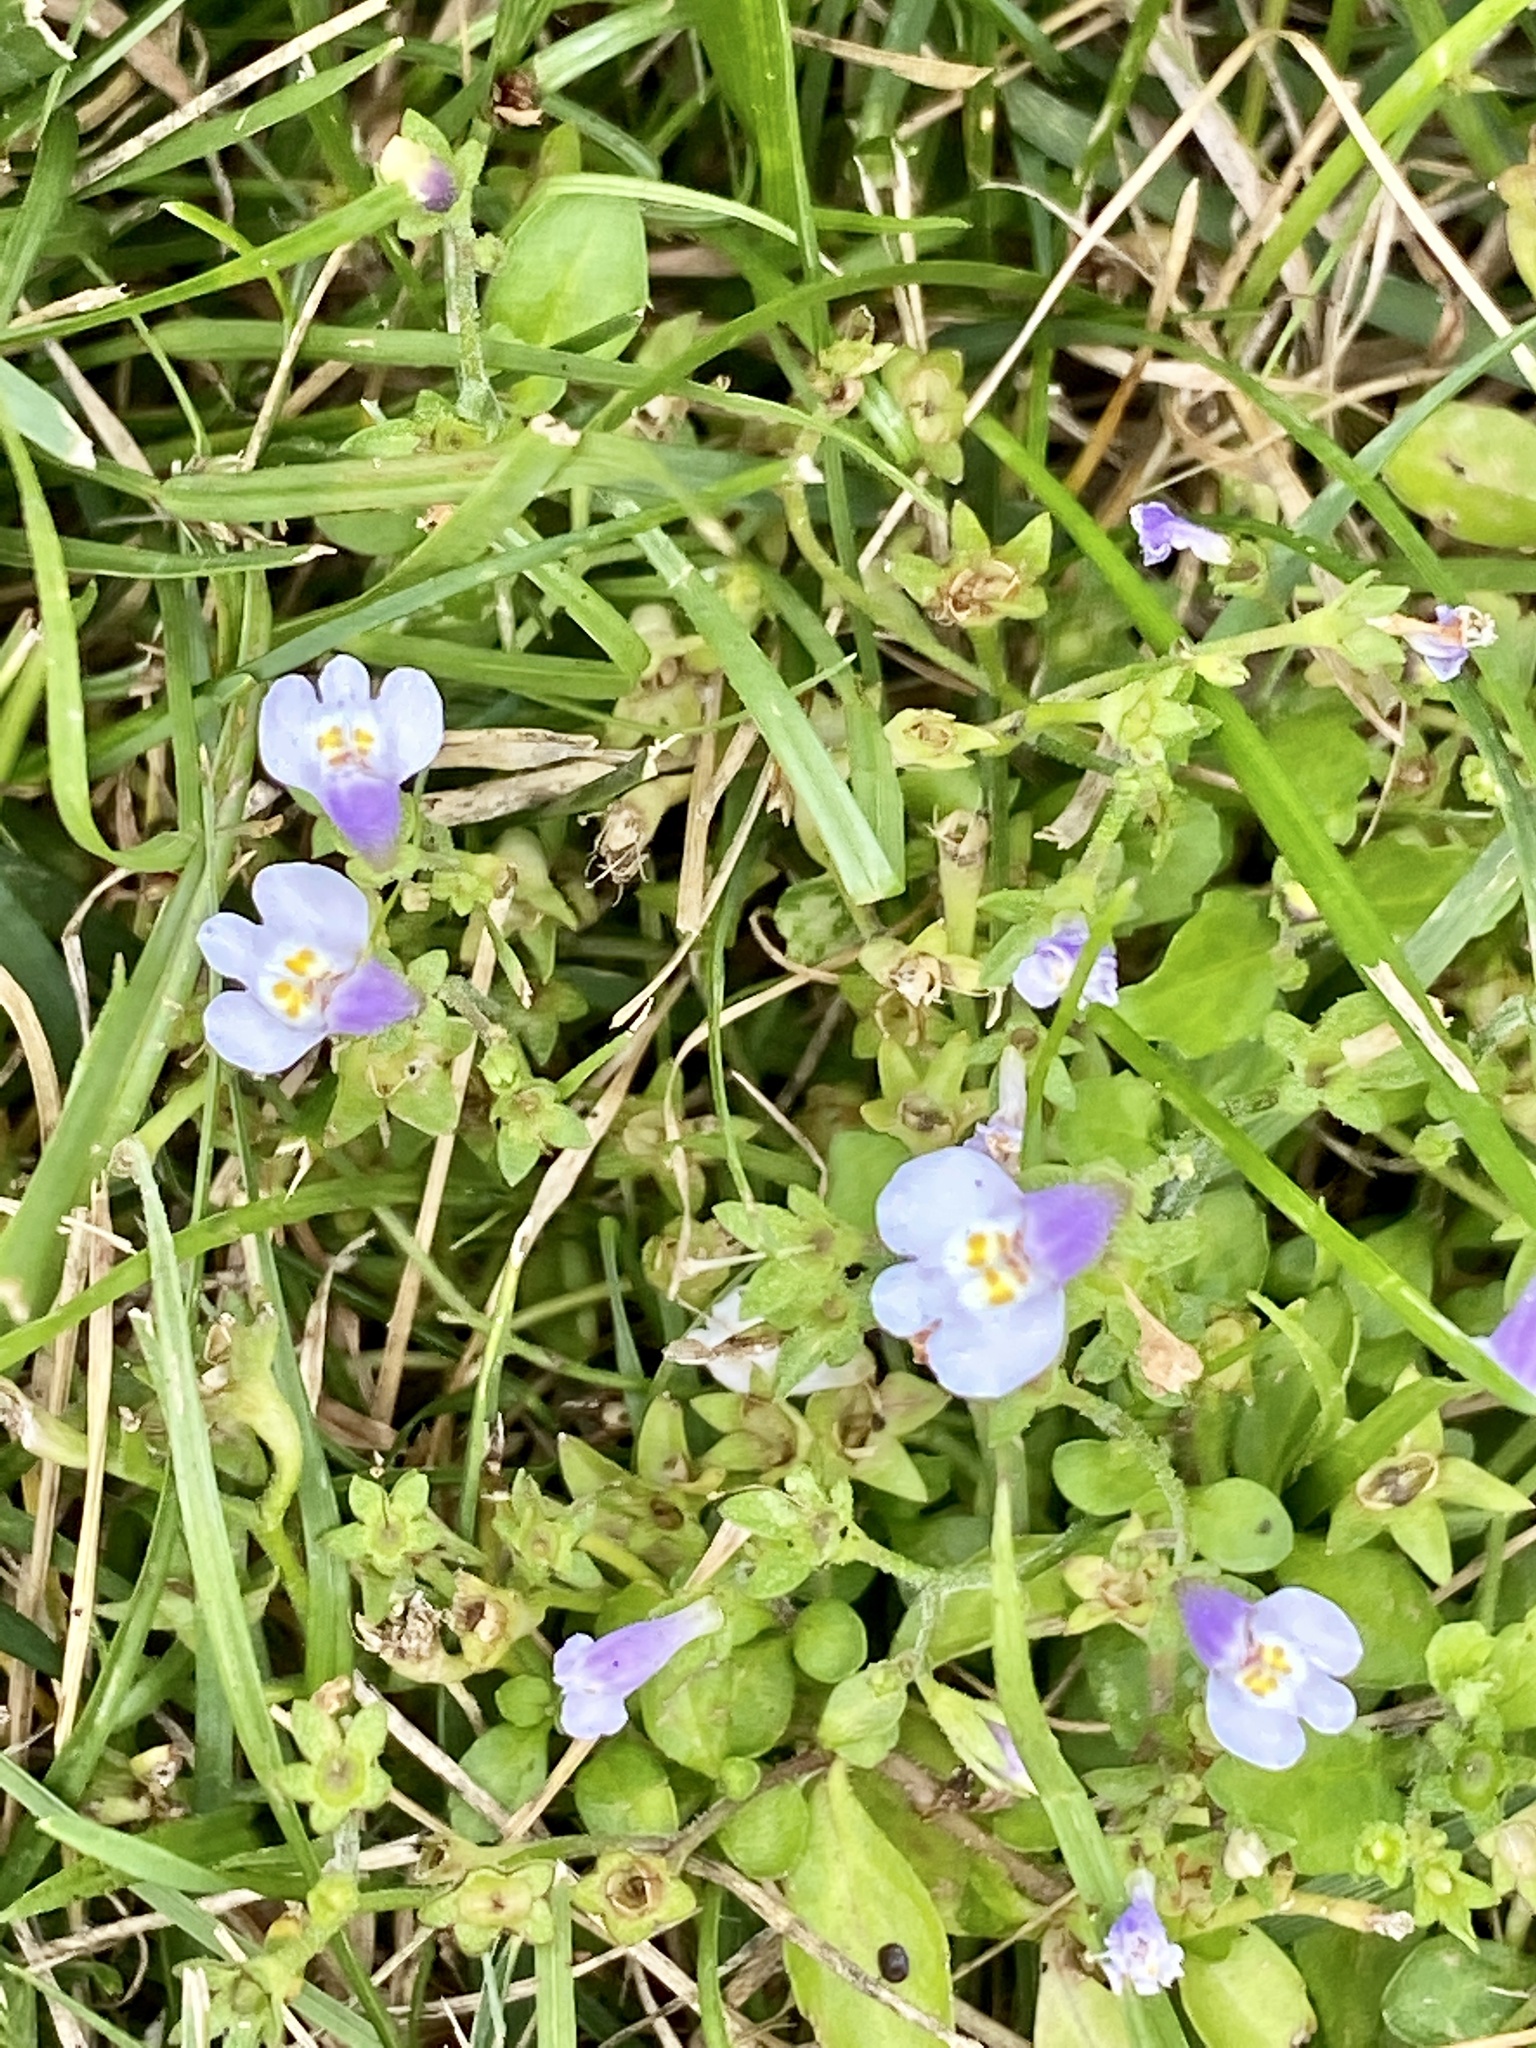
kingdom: Plantae
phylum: Tracheophyta
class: Magnoliopsida
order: Lamiales
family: Mazaceae
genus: Mazus
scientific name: Mazus pumilus
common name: Japanese mazus
